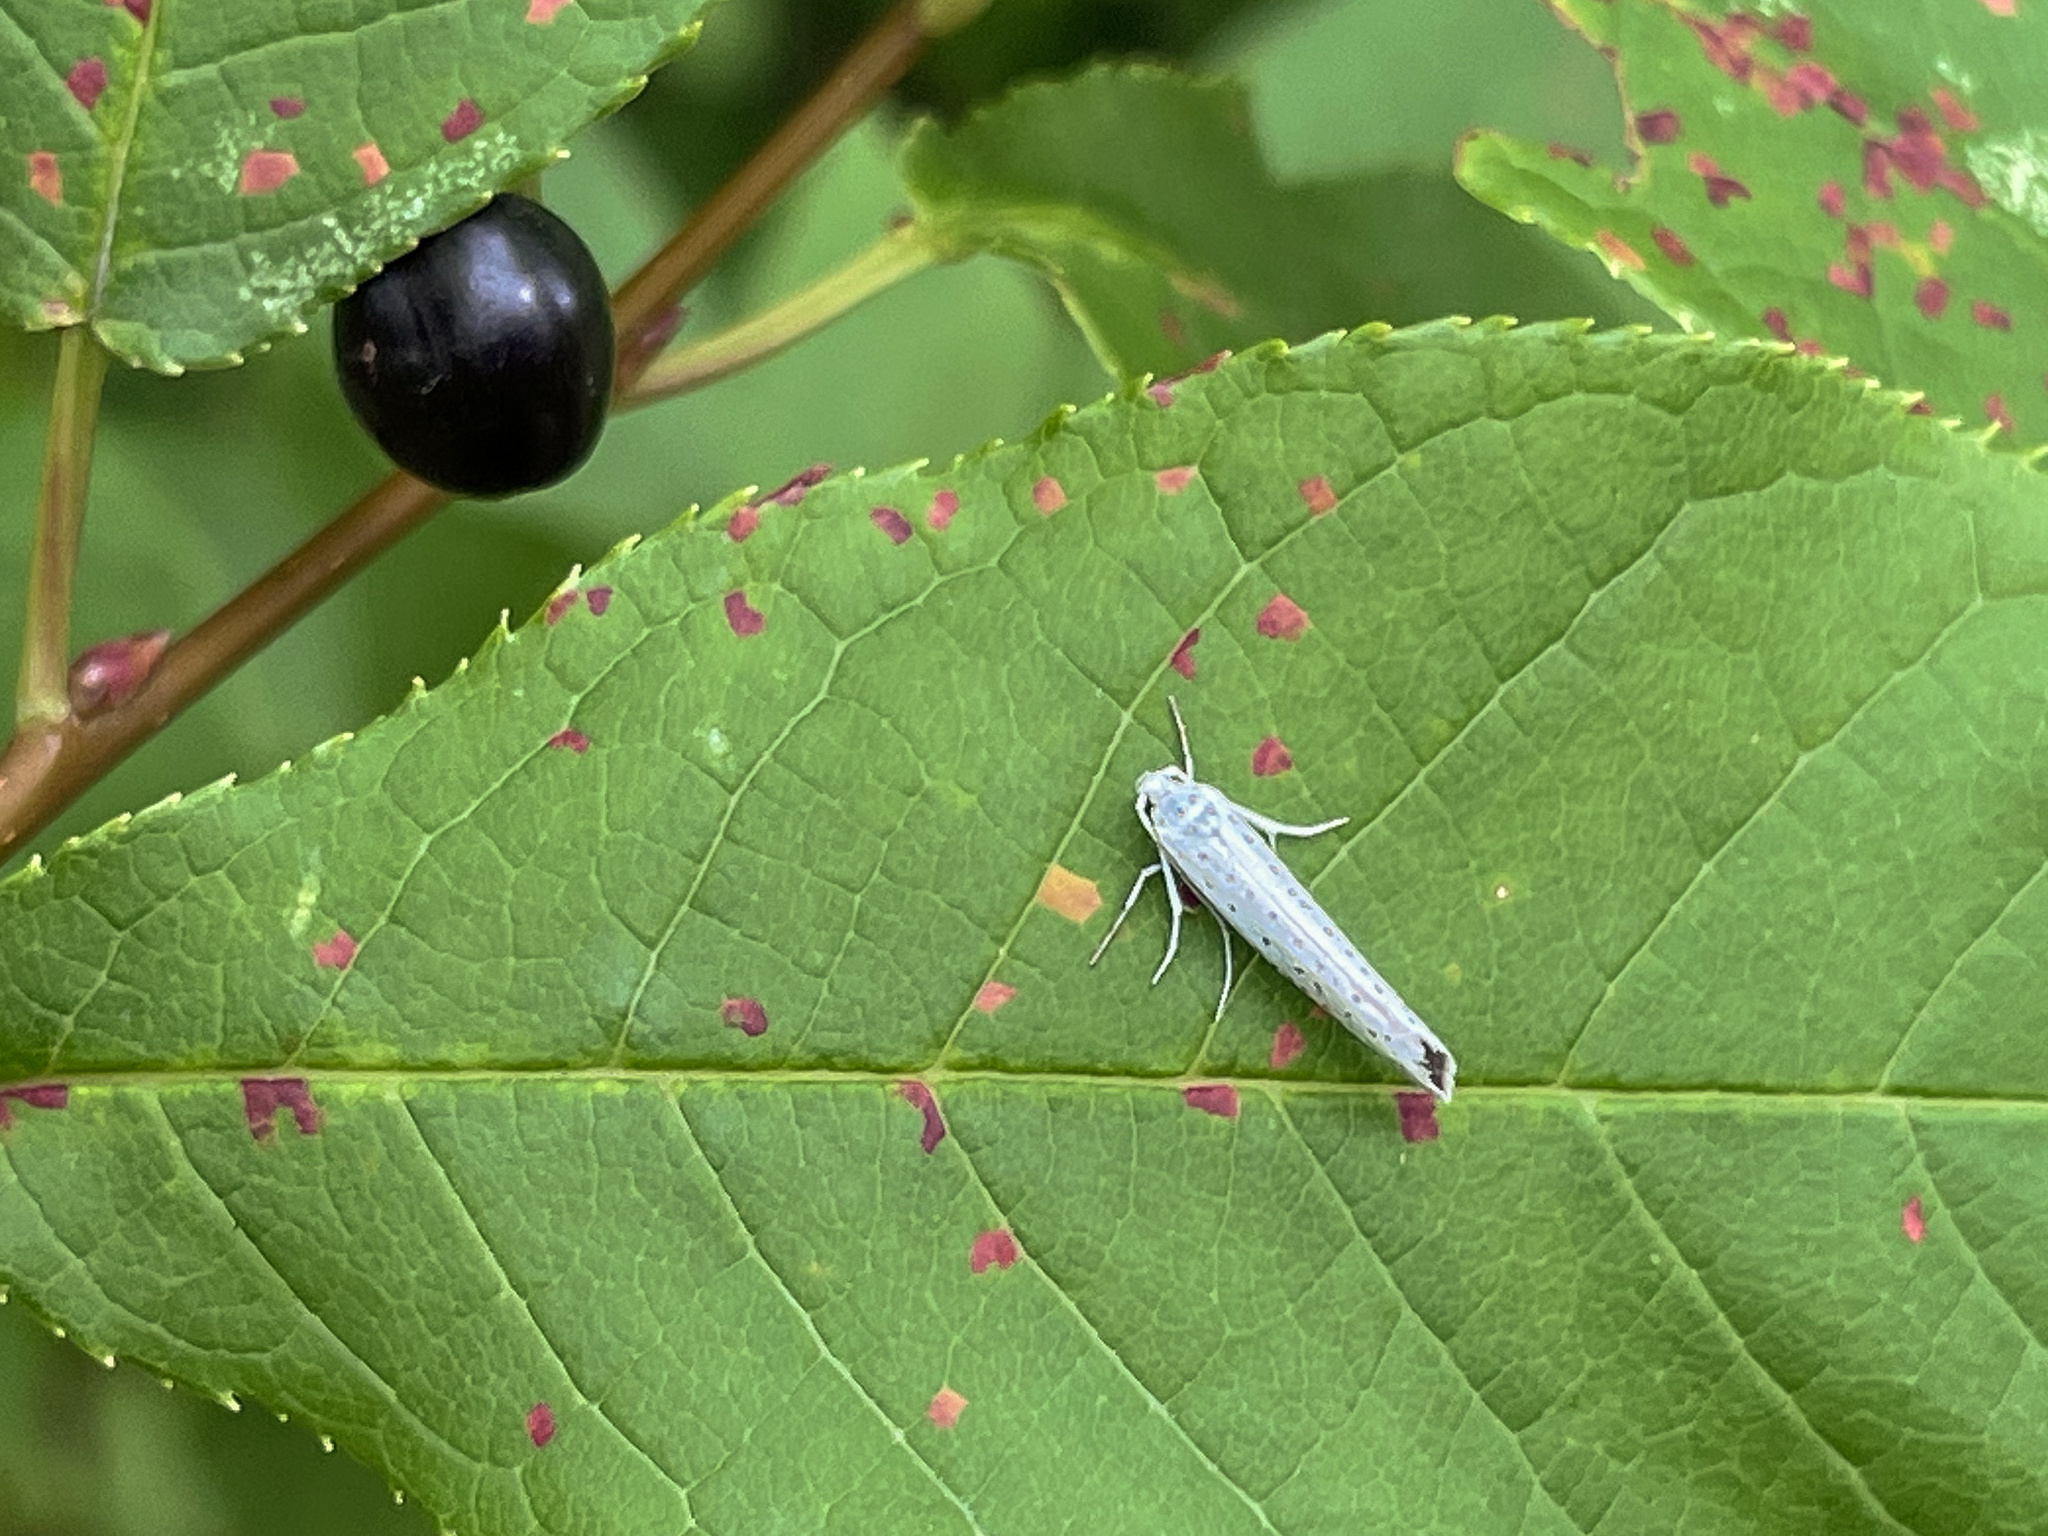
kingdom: Animalia
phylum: Arthropoda
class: Insecta
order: Lepidoptera
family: Yponomeutidae
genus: Yponomeuta
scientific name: Yponomeuta evonymella
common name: Bird-cherry ermine
